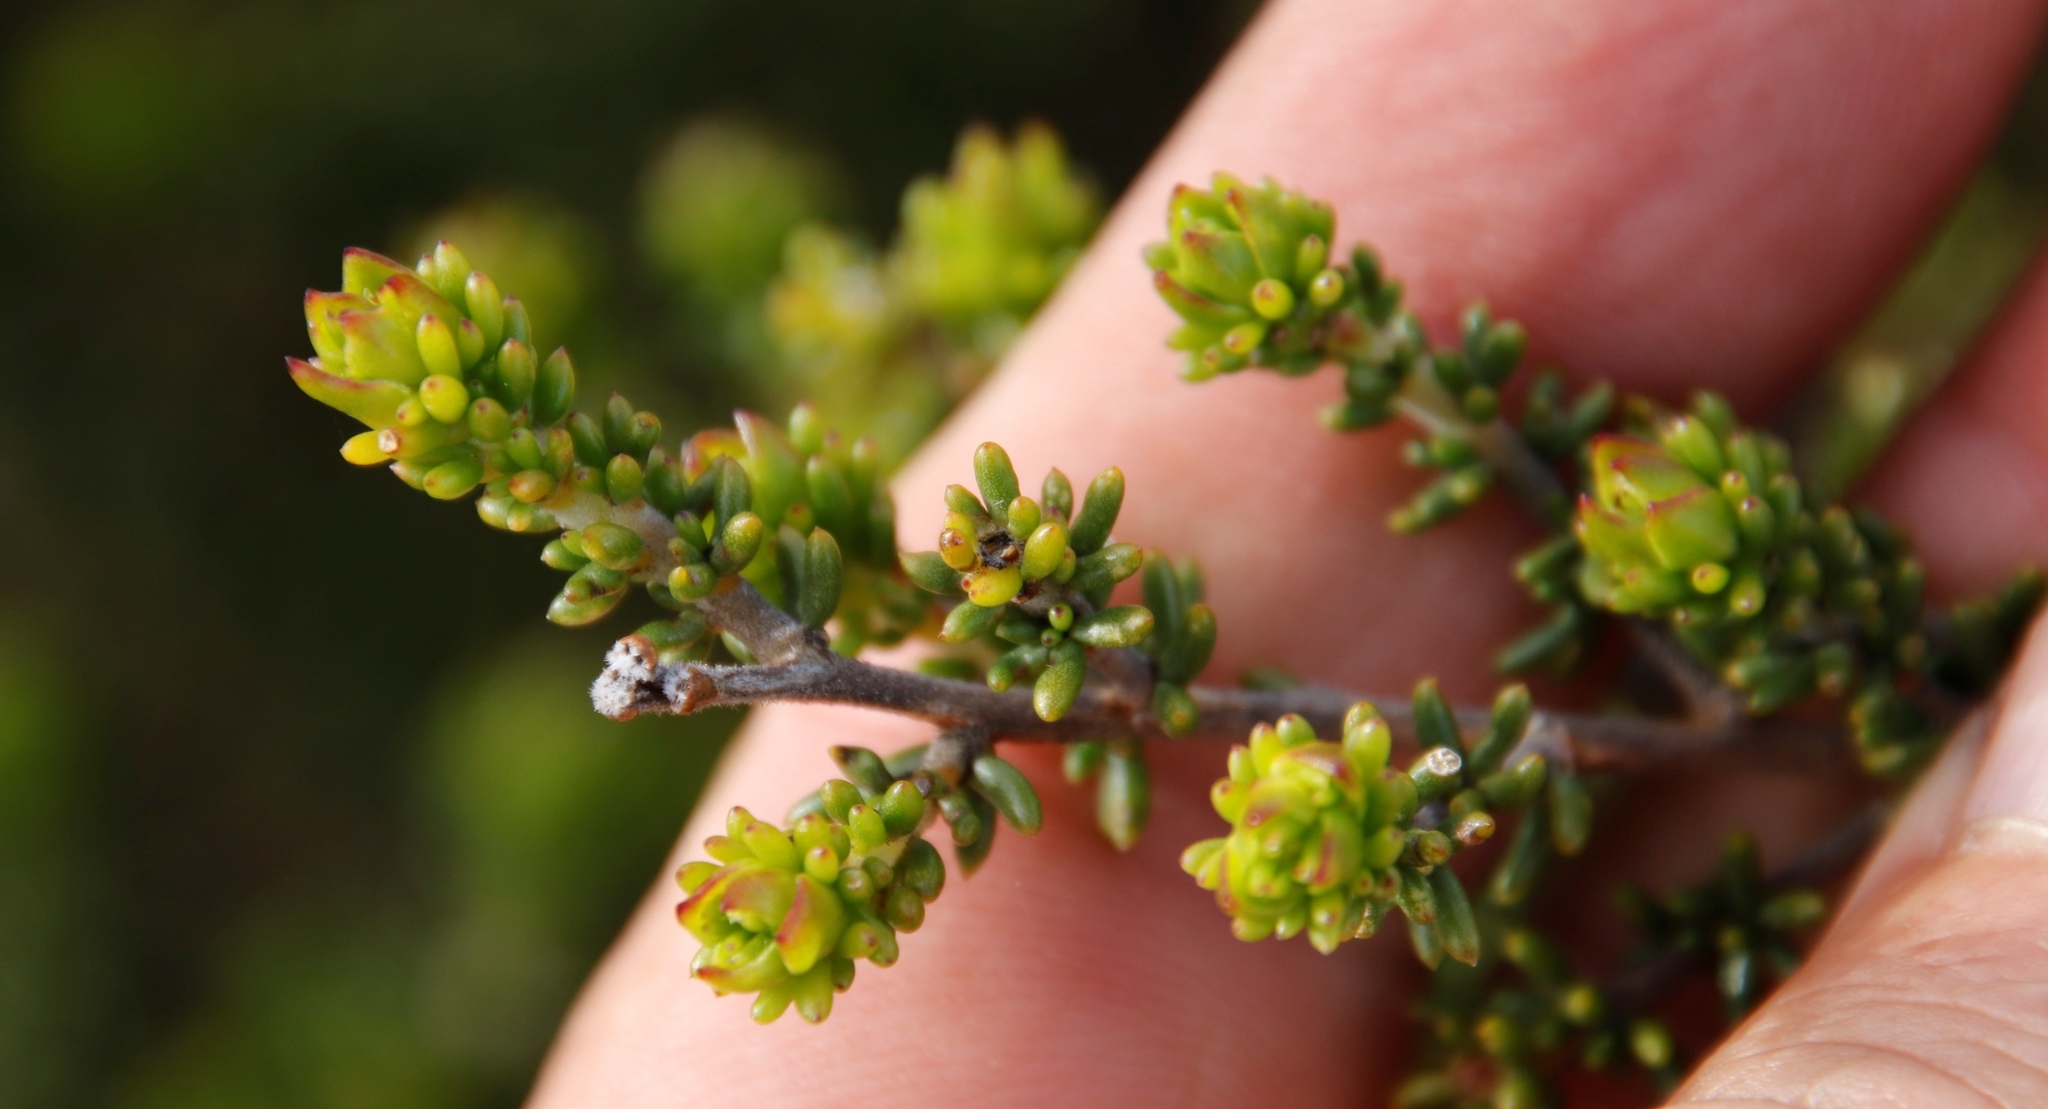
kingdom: Plantae
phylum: Tracheophyta
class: Magnoliopsida
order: Fabales
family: Fabaceae
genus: Aspalathus
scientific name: Aspalathus carnosa
